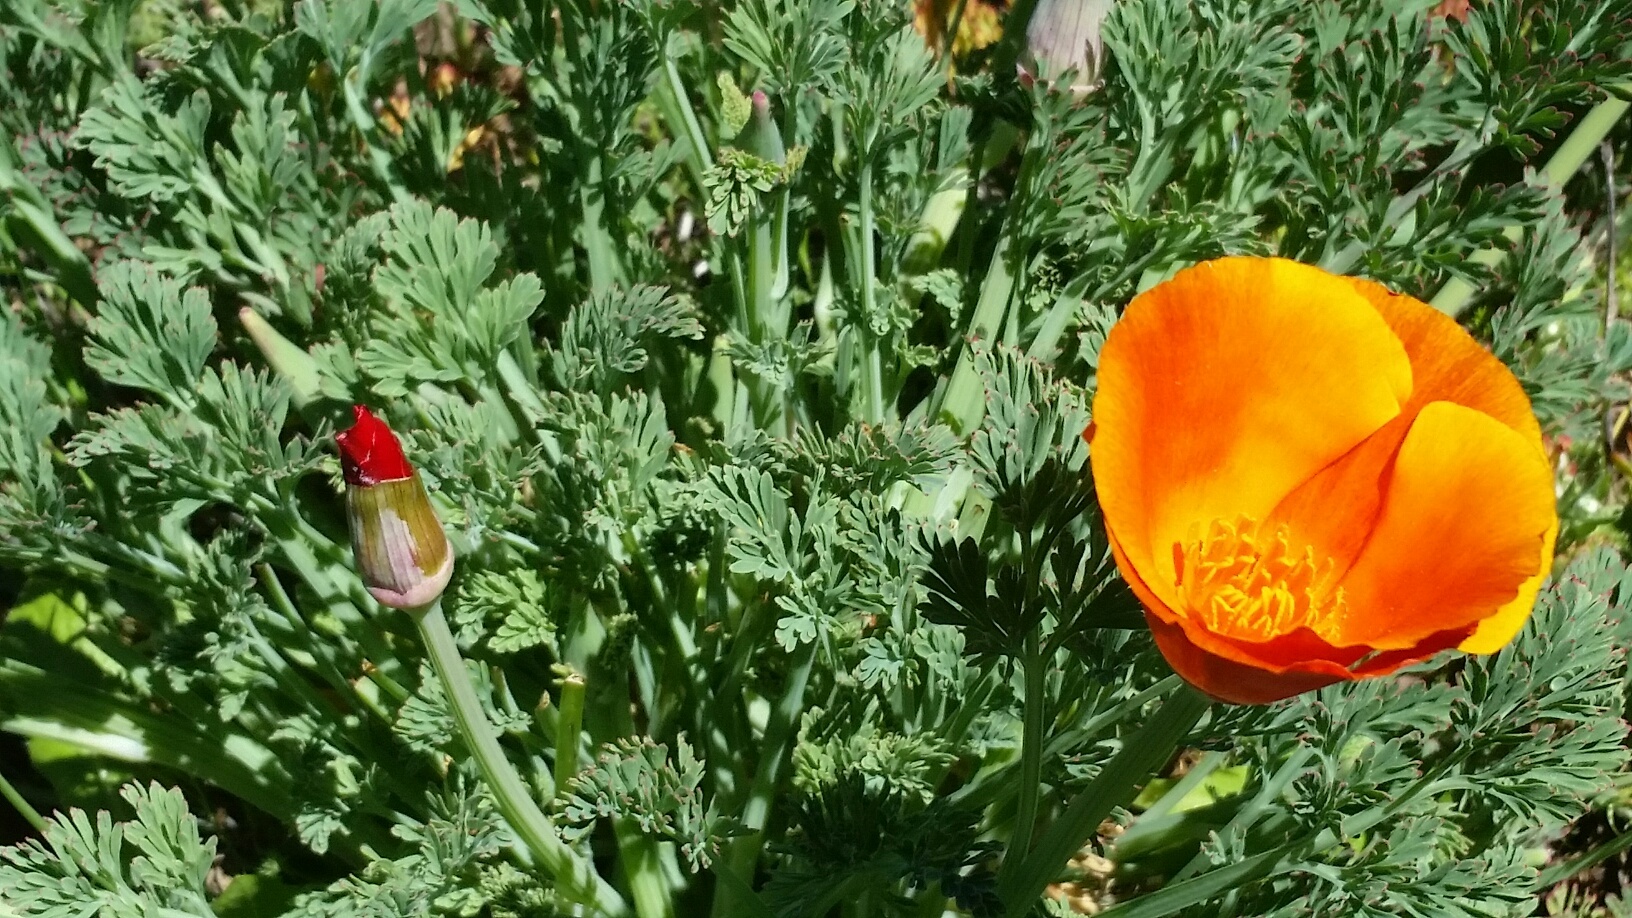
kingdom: Plantae
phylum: Tracheophyta
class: Magnoliopsida
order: Ranunculales
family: Papaveraceae
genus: Eschscholzia
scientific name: Eschscholzia californica
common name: California poppy
